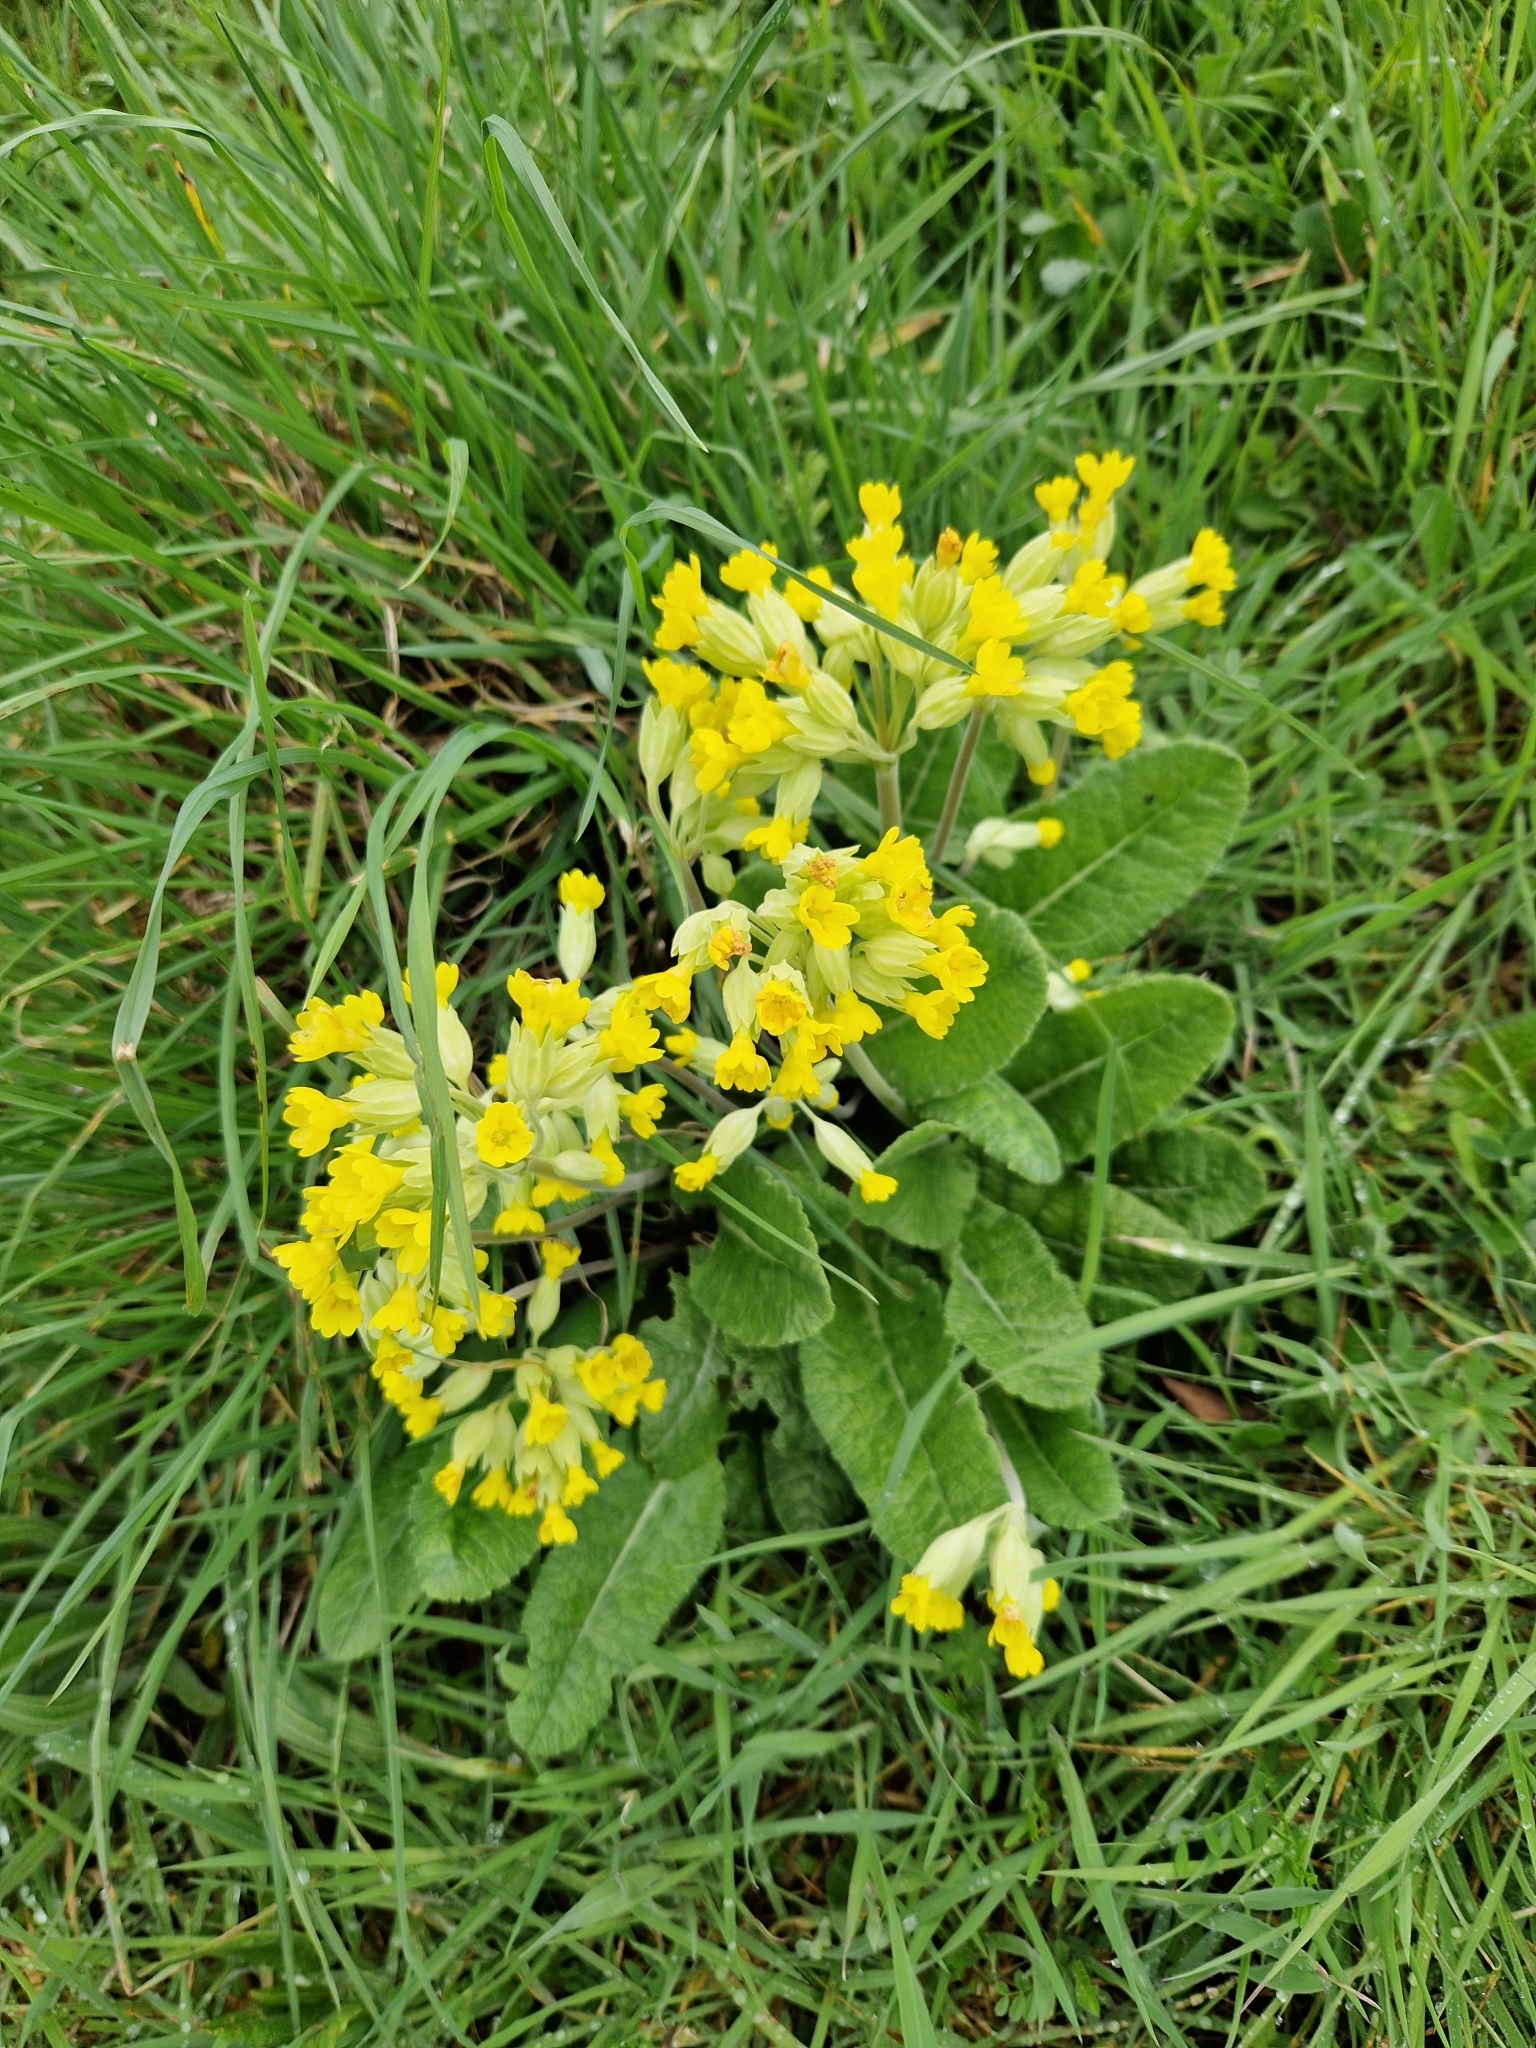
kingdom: Plantae
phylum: Tracheophyta
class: Magnoliopsida
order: Ericales
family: Primulaceae
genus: Primula
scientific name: Primula veris
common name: Cowslip
